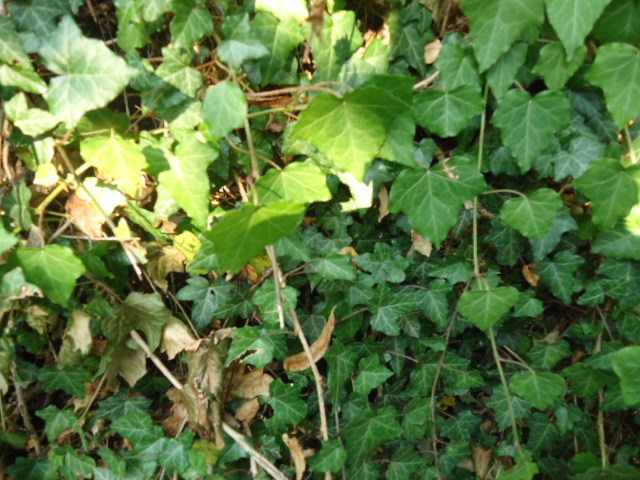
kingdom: Plantae
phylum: Tracheophyta
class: Magnoliopsida
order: Apiales
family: Araliaceae
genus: Hedera
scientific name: Hedera helix
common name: Ivy
